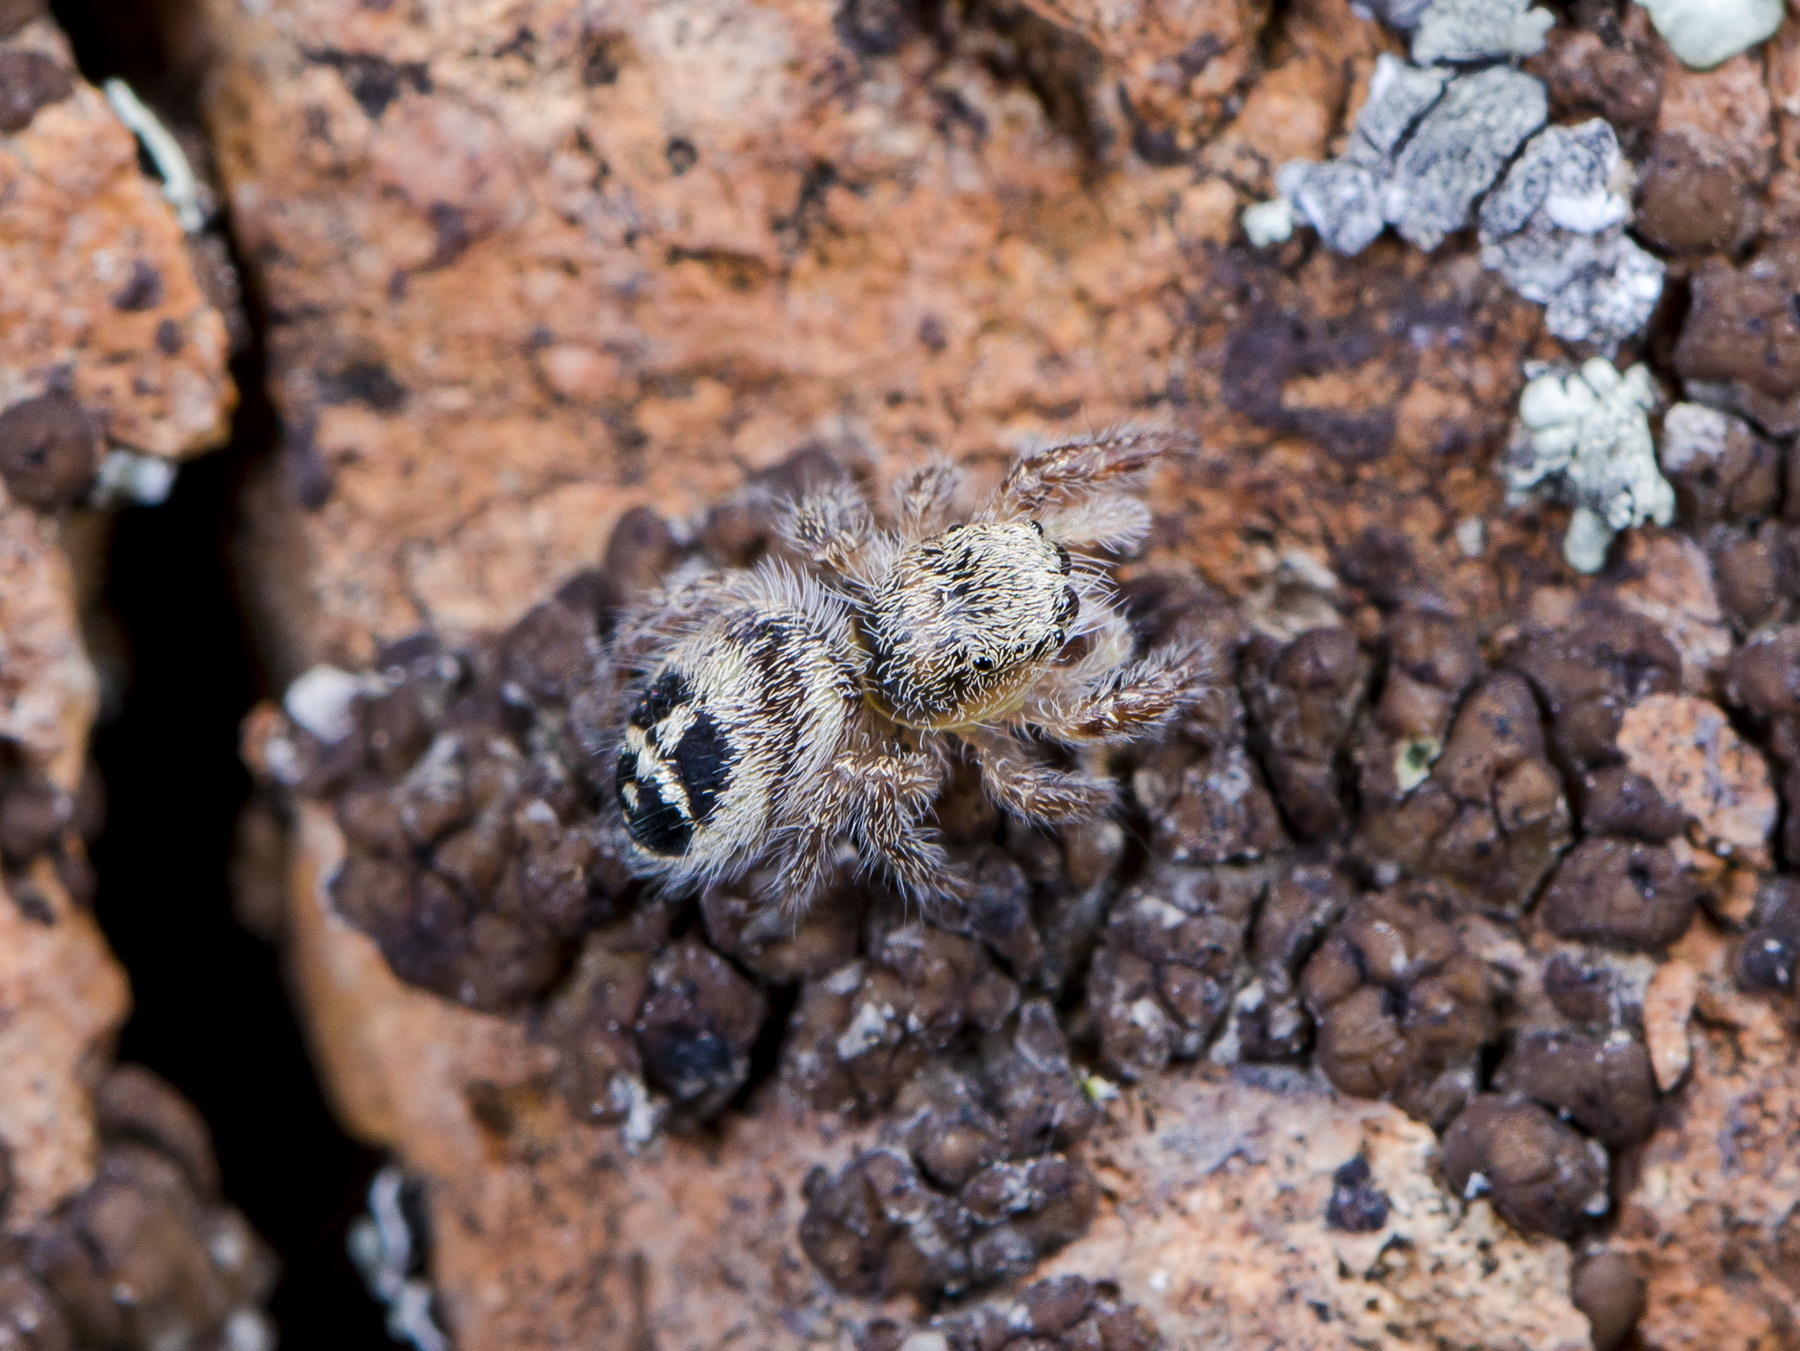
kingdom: Animalia
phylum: Arthropoda
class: Arachnida
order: Araneae
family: Salticidae
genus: Pellenes
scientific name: Pellenes sibiricus
